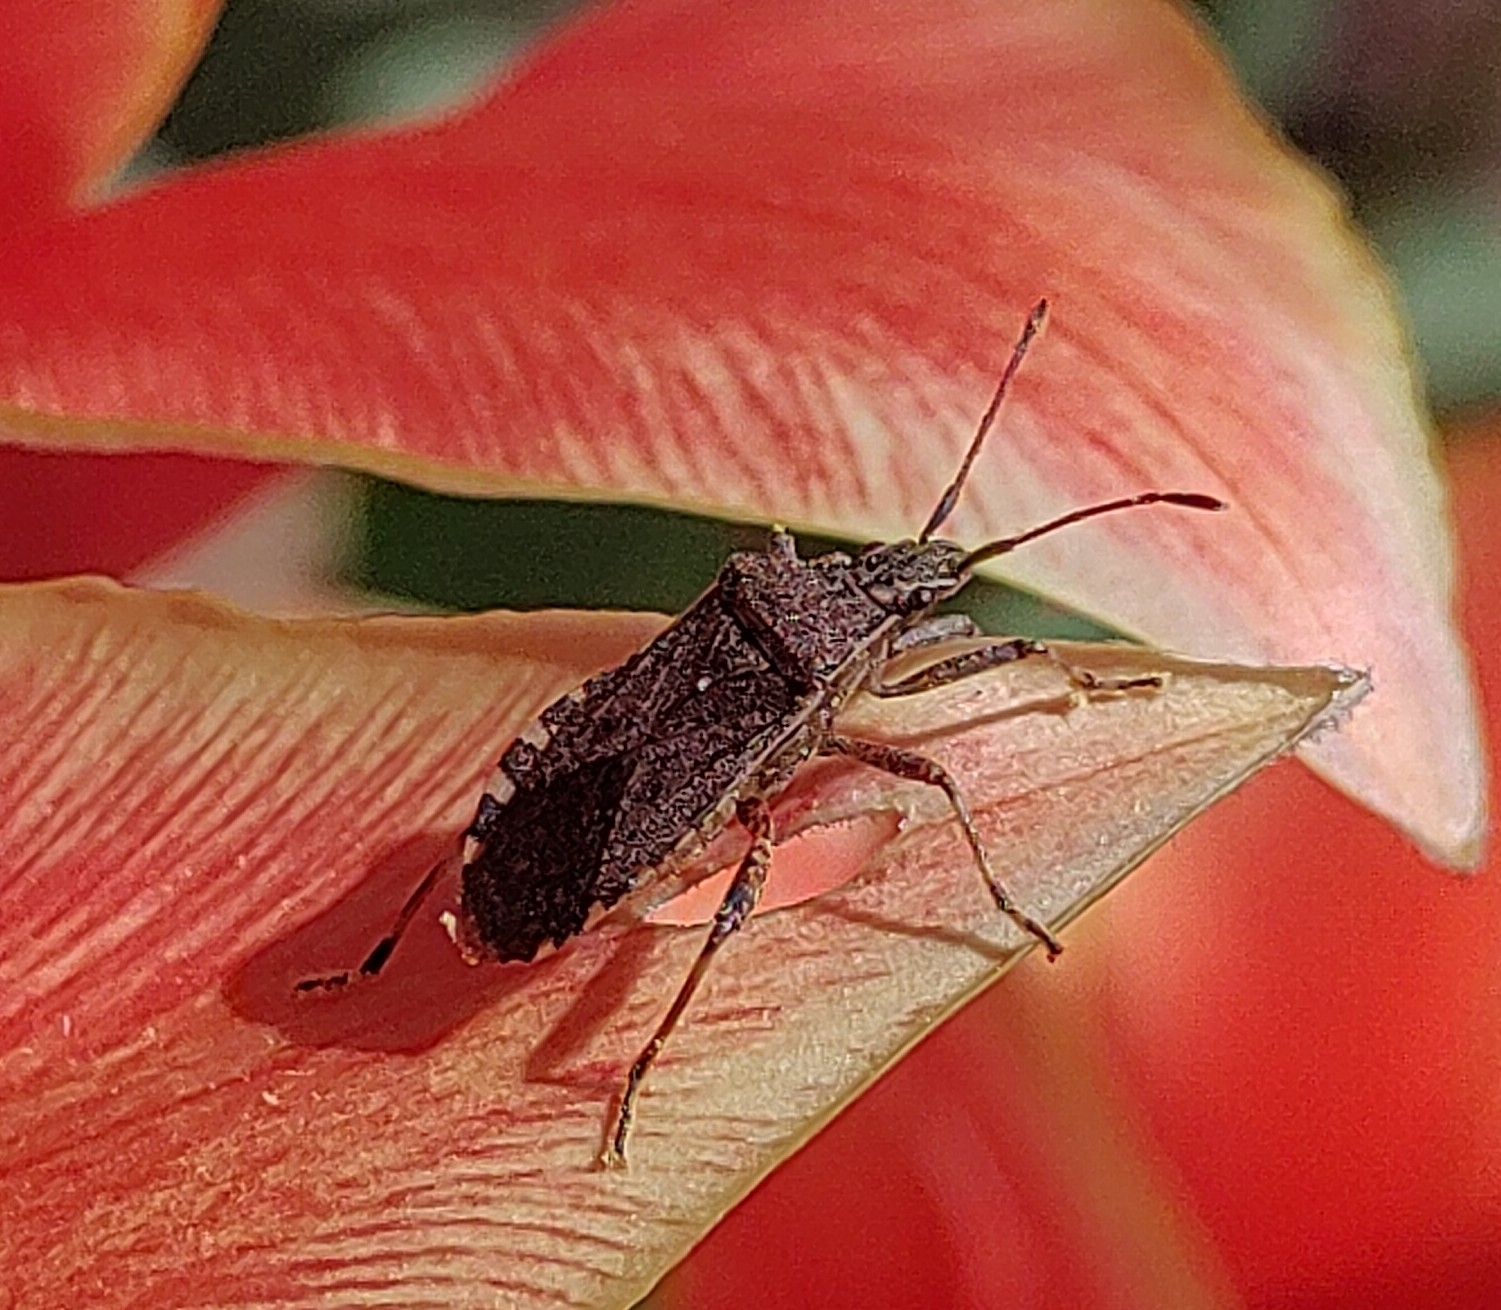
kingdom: Animalia
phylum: Arthropoda
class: Insecta
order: Hemiptera
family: Coreidae
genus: Ceraleptus
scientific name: Ceraleptus gracilicornis
